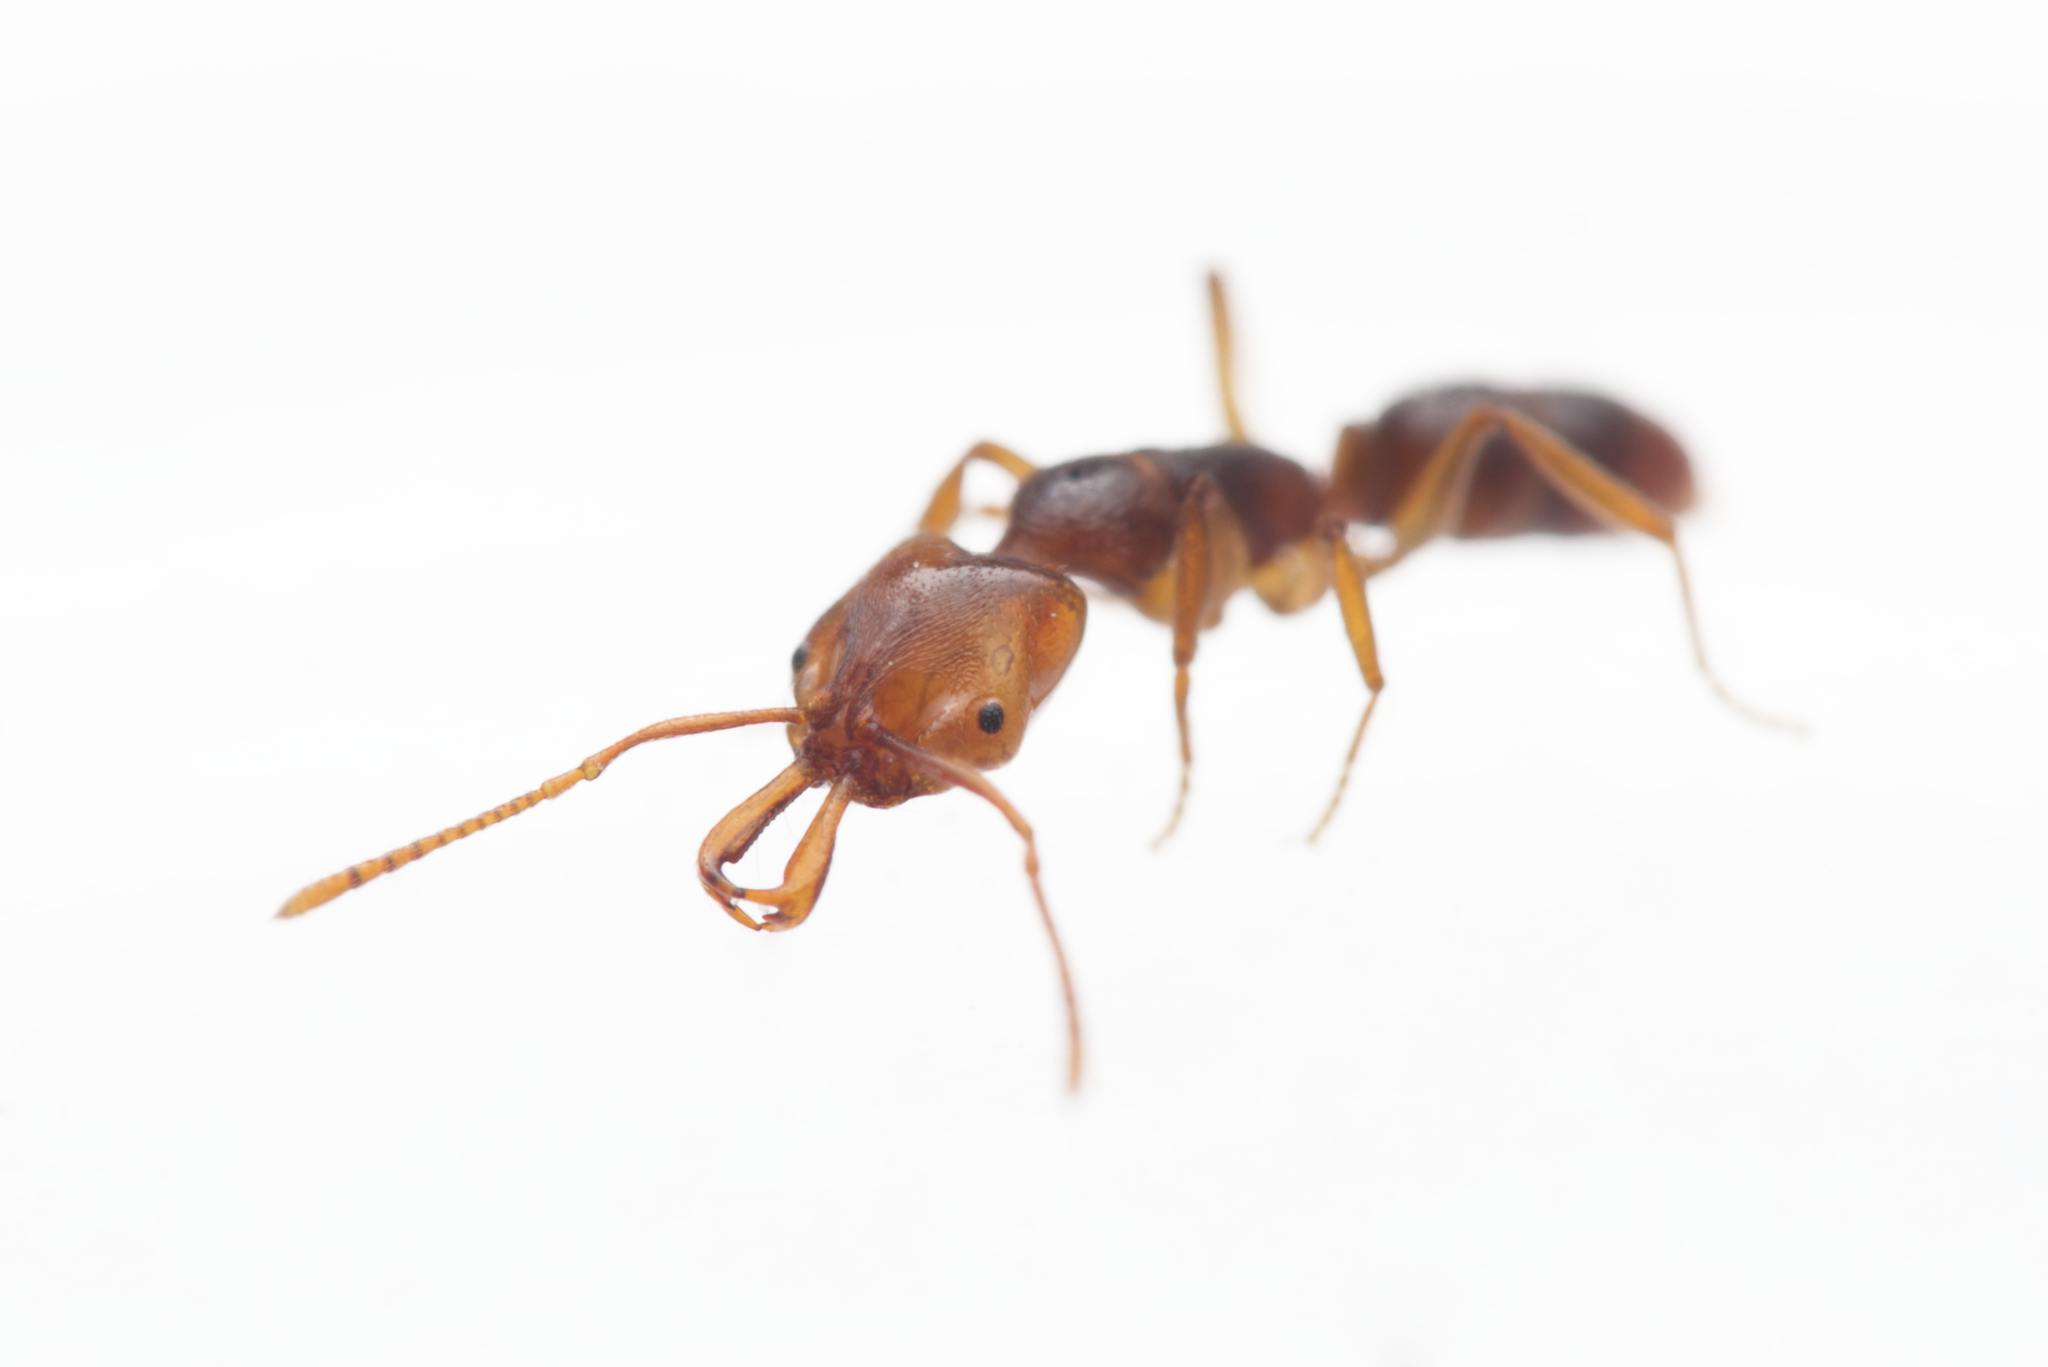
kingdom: Animalia
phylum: Arthropoda
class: Insecta
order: Hymenoptera
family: Formicidae
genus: Anochetus
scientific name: Anochetus graeffei
